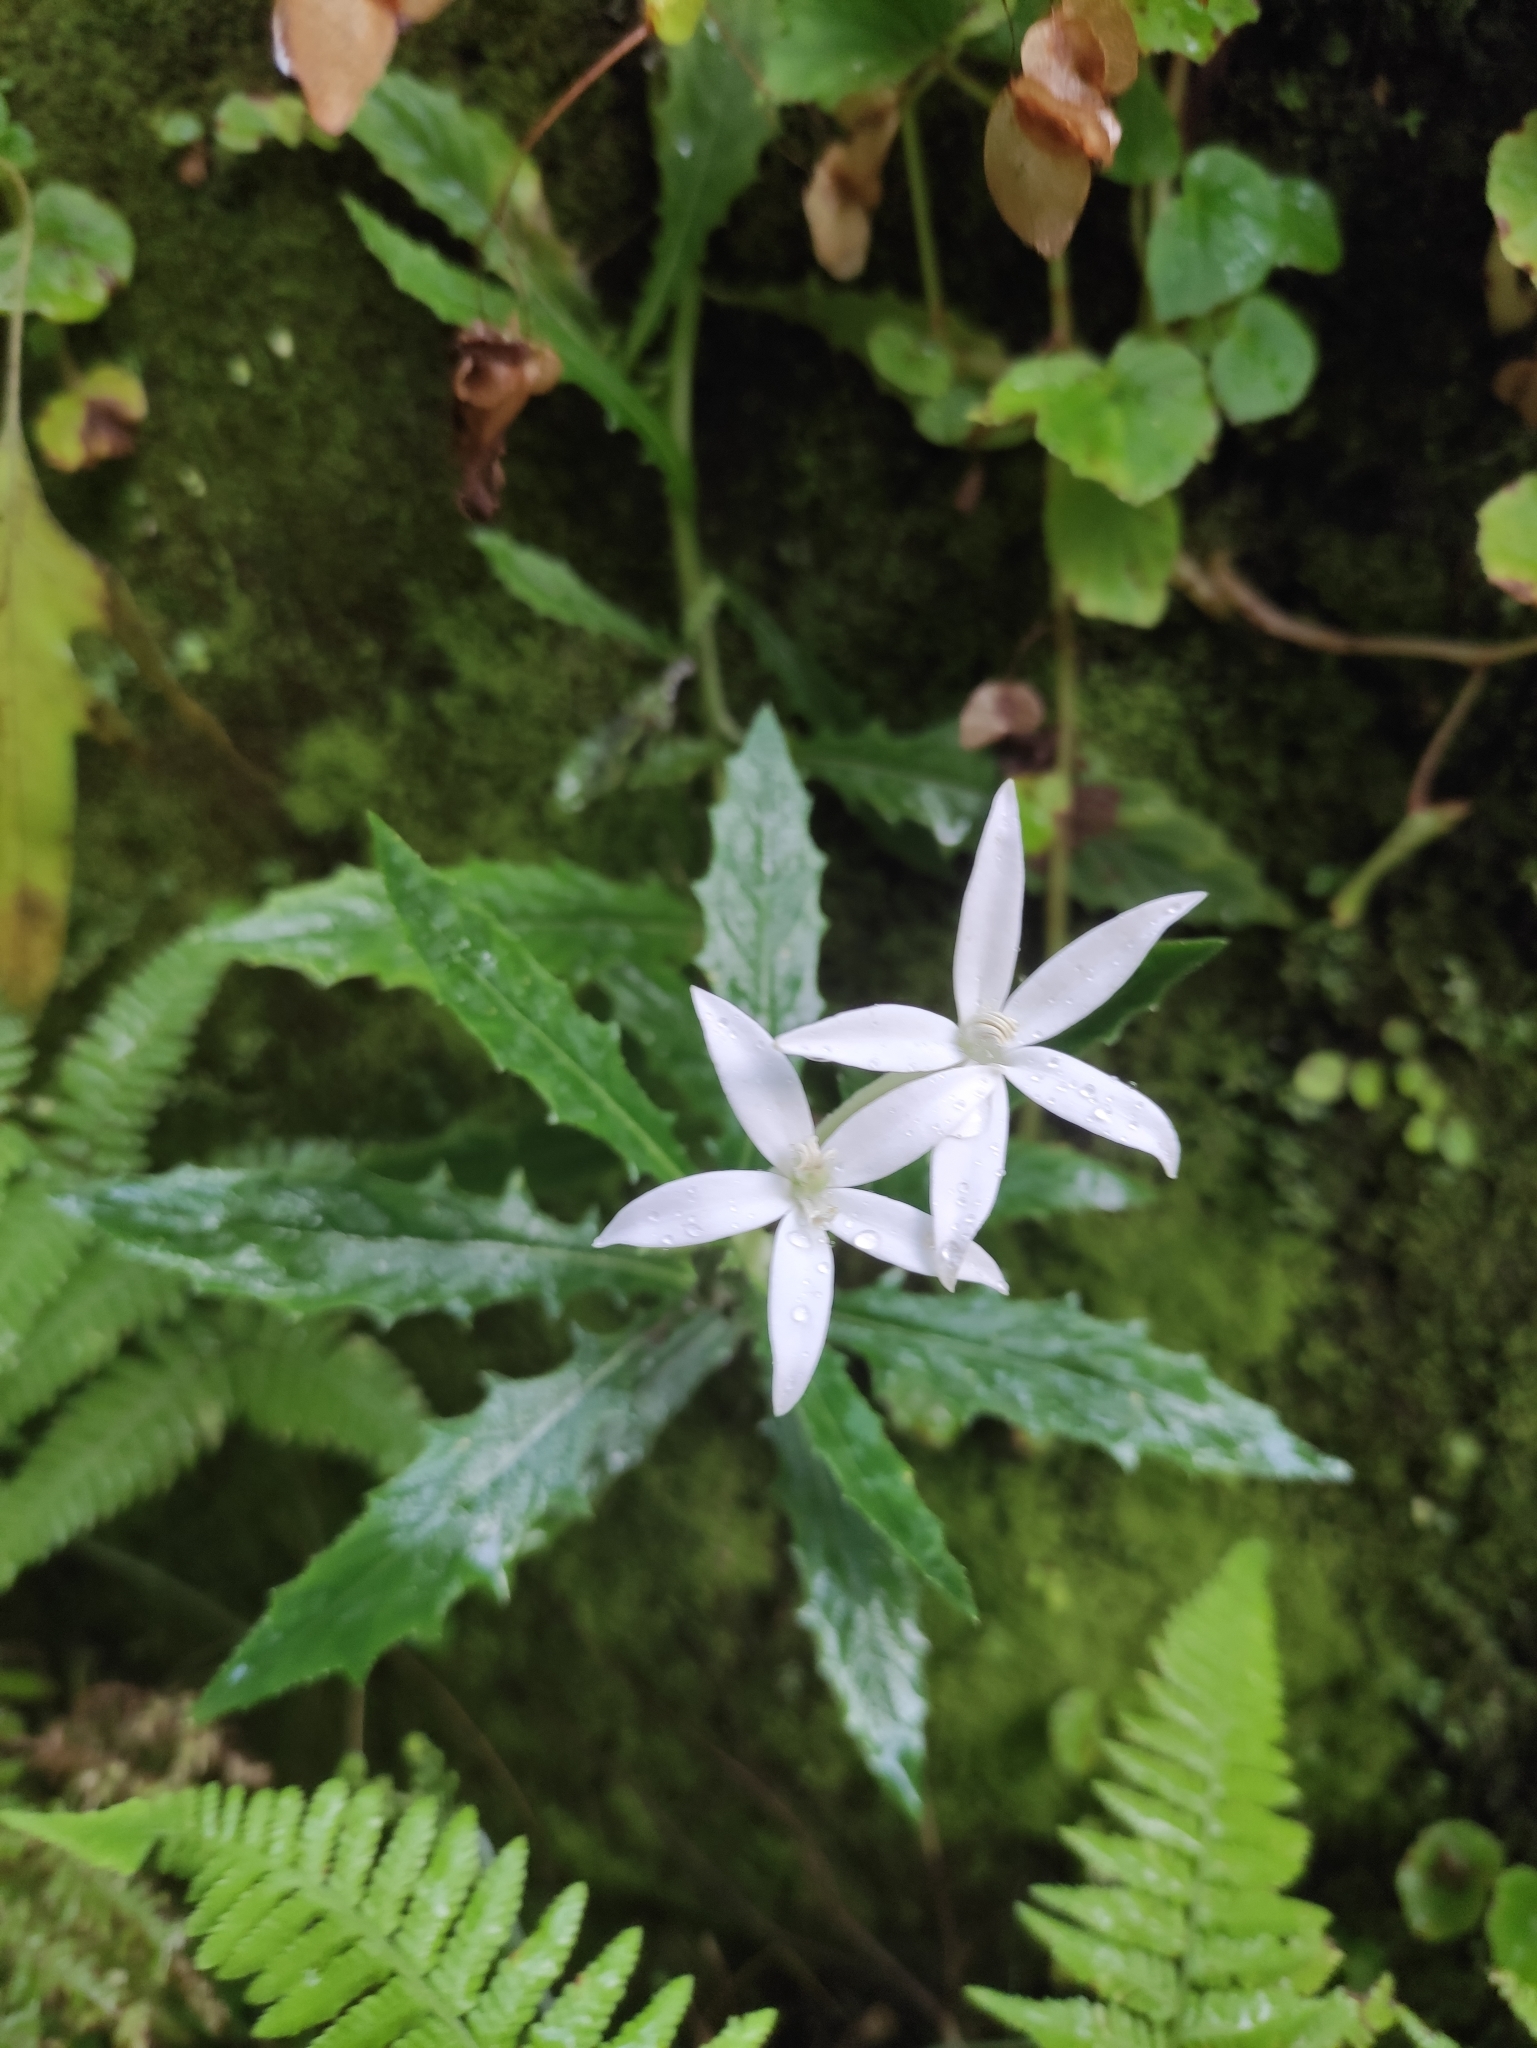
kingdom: Plantae
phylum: Tracheophyta
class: Magnoliopsida
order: Asterales
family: Campanulaceae
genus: Hippobroma
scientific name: Hippobroma longiflora
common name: Madamfate
